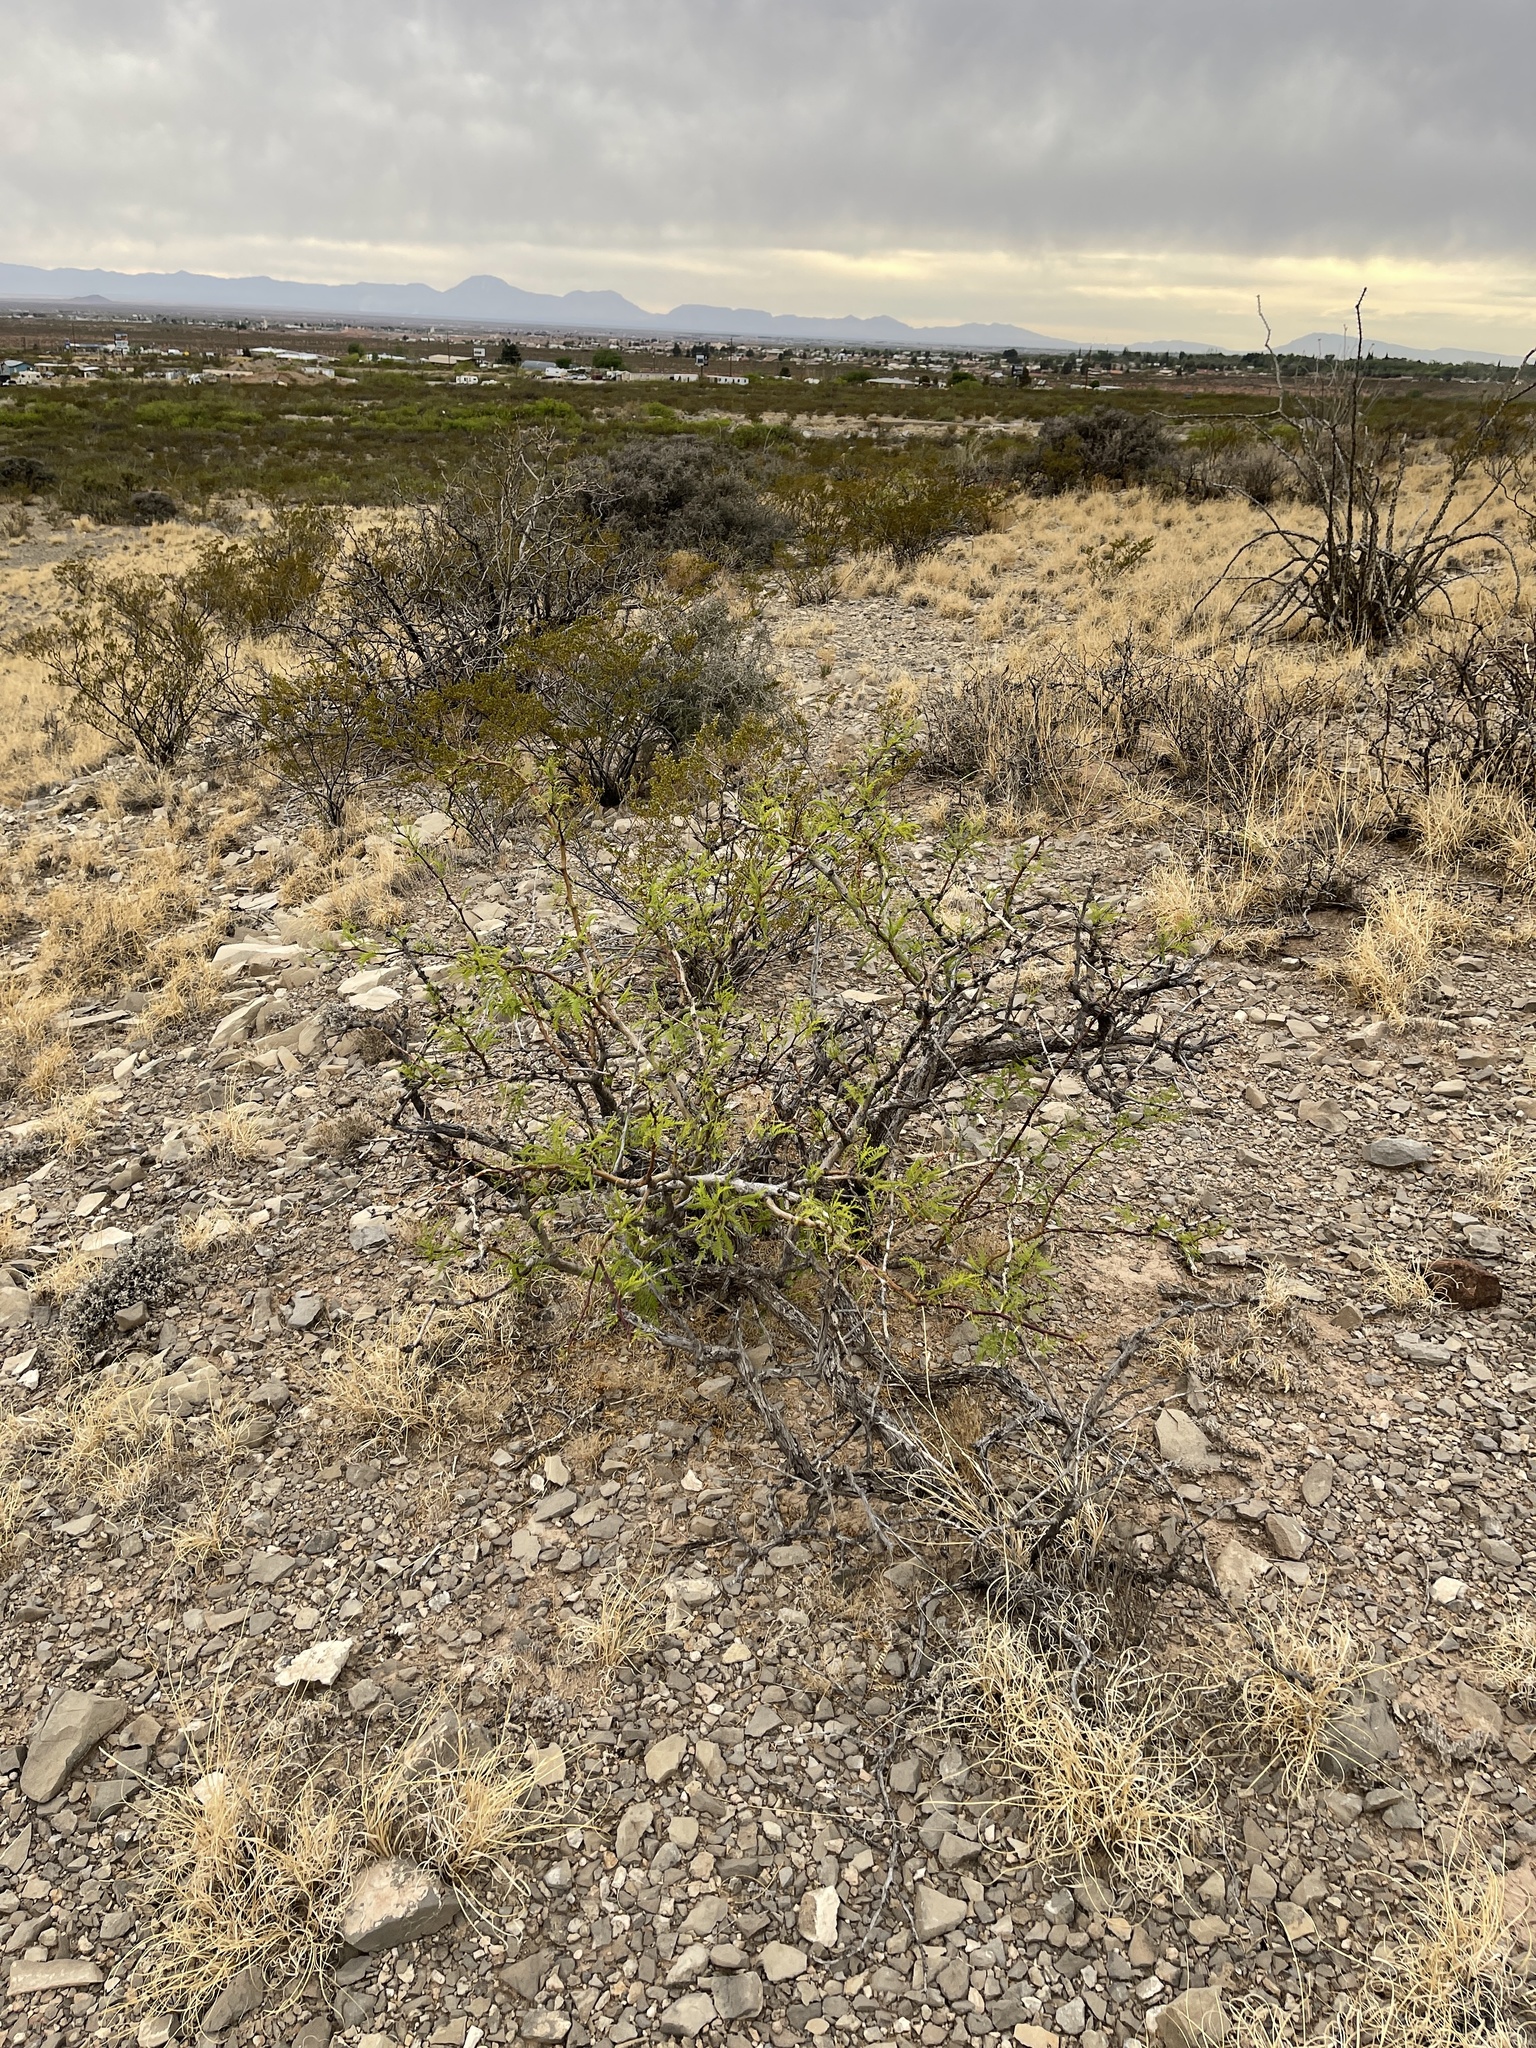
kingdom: Plantae
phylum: Tracheophyta
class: Magnoliopsida
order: Fabales
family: Fabaceae
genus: Prosopis
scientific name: Prosopis glandulosa
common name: Honey mesquite
